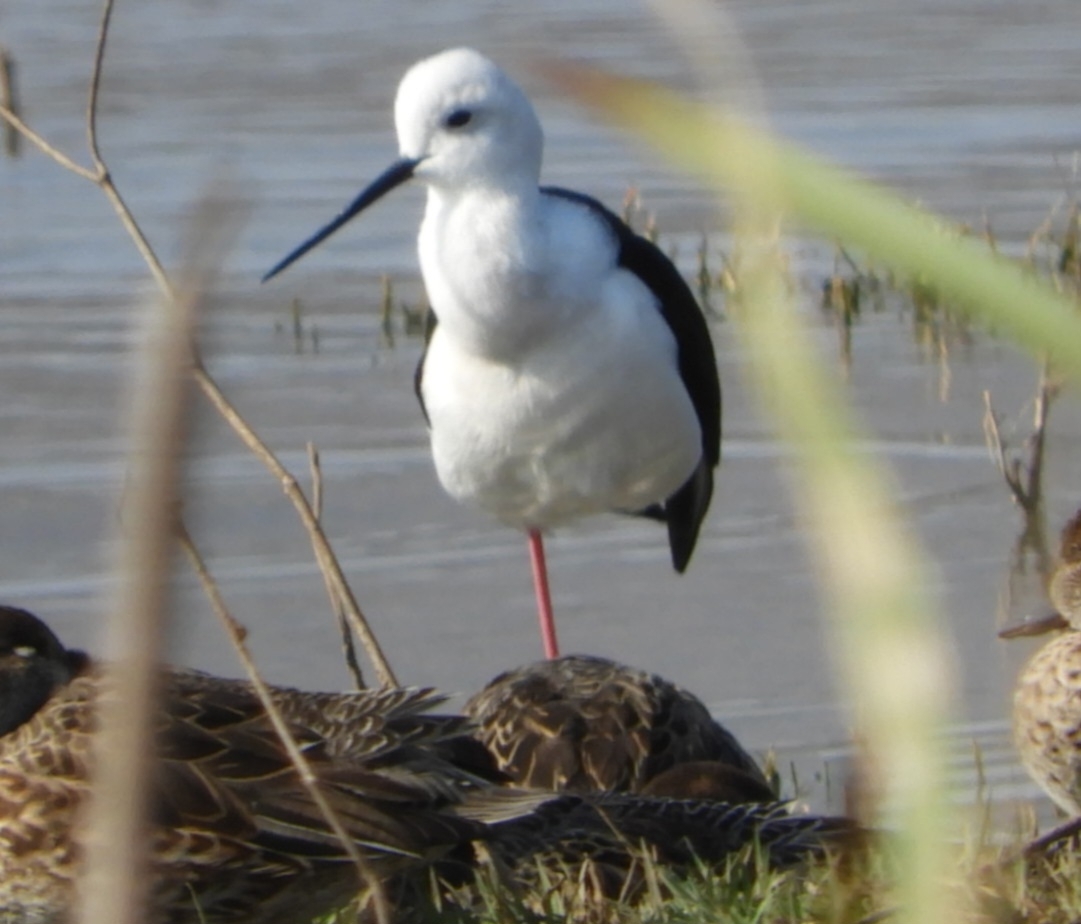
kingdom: Animalia
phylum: Chordata
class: Aves
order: Charadriiformes
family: Recurvirostridae
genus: Himantopus
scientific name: Himantopus himantopus
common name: Black-winged stilt
